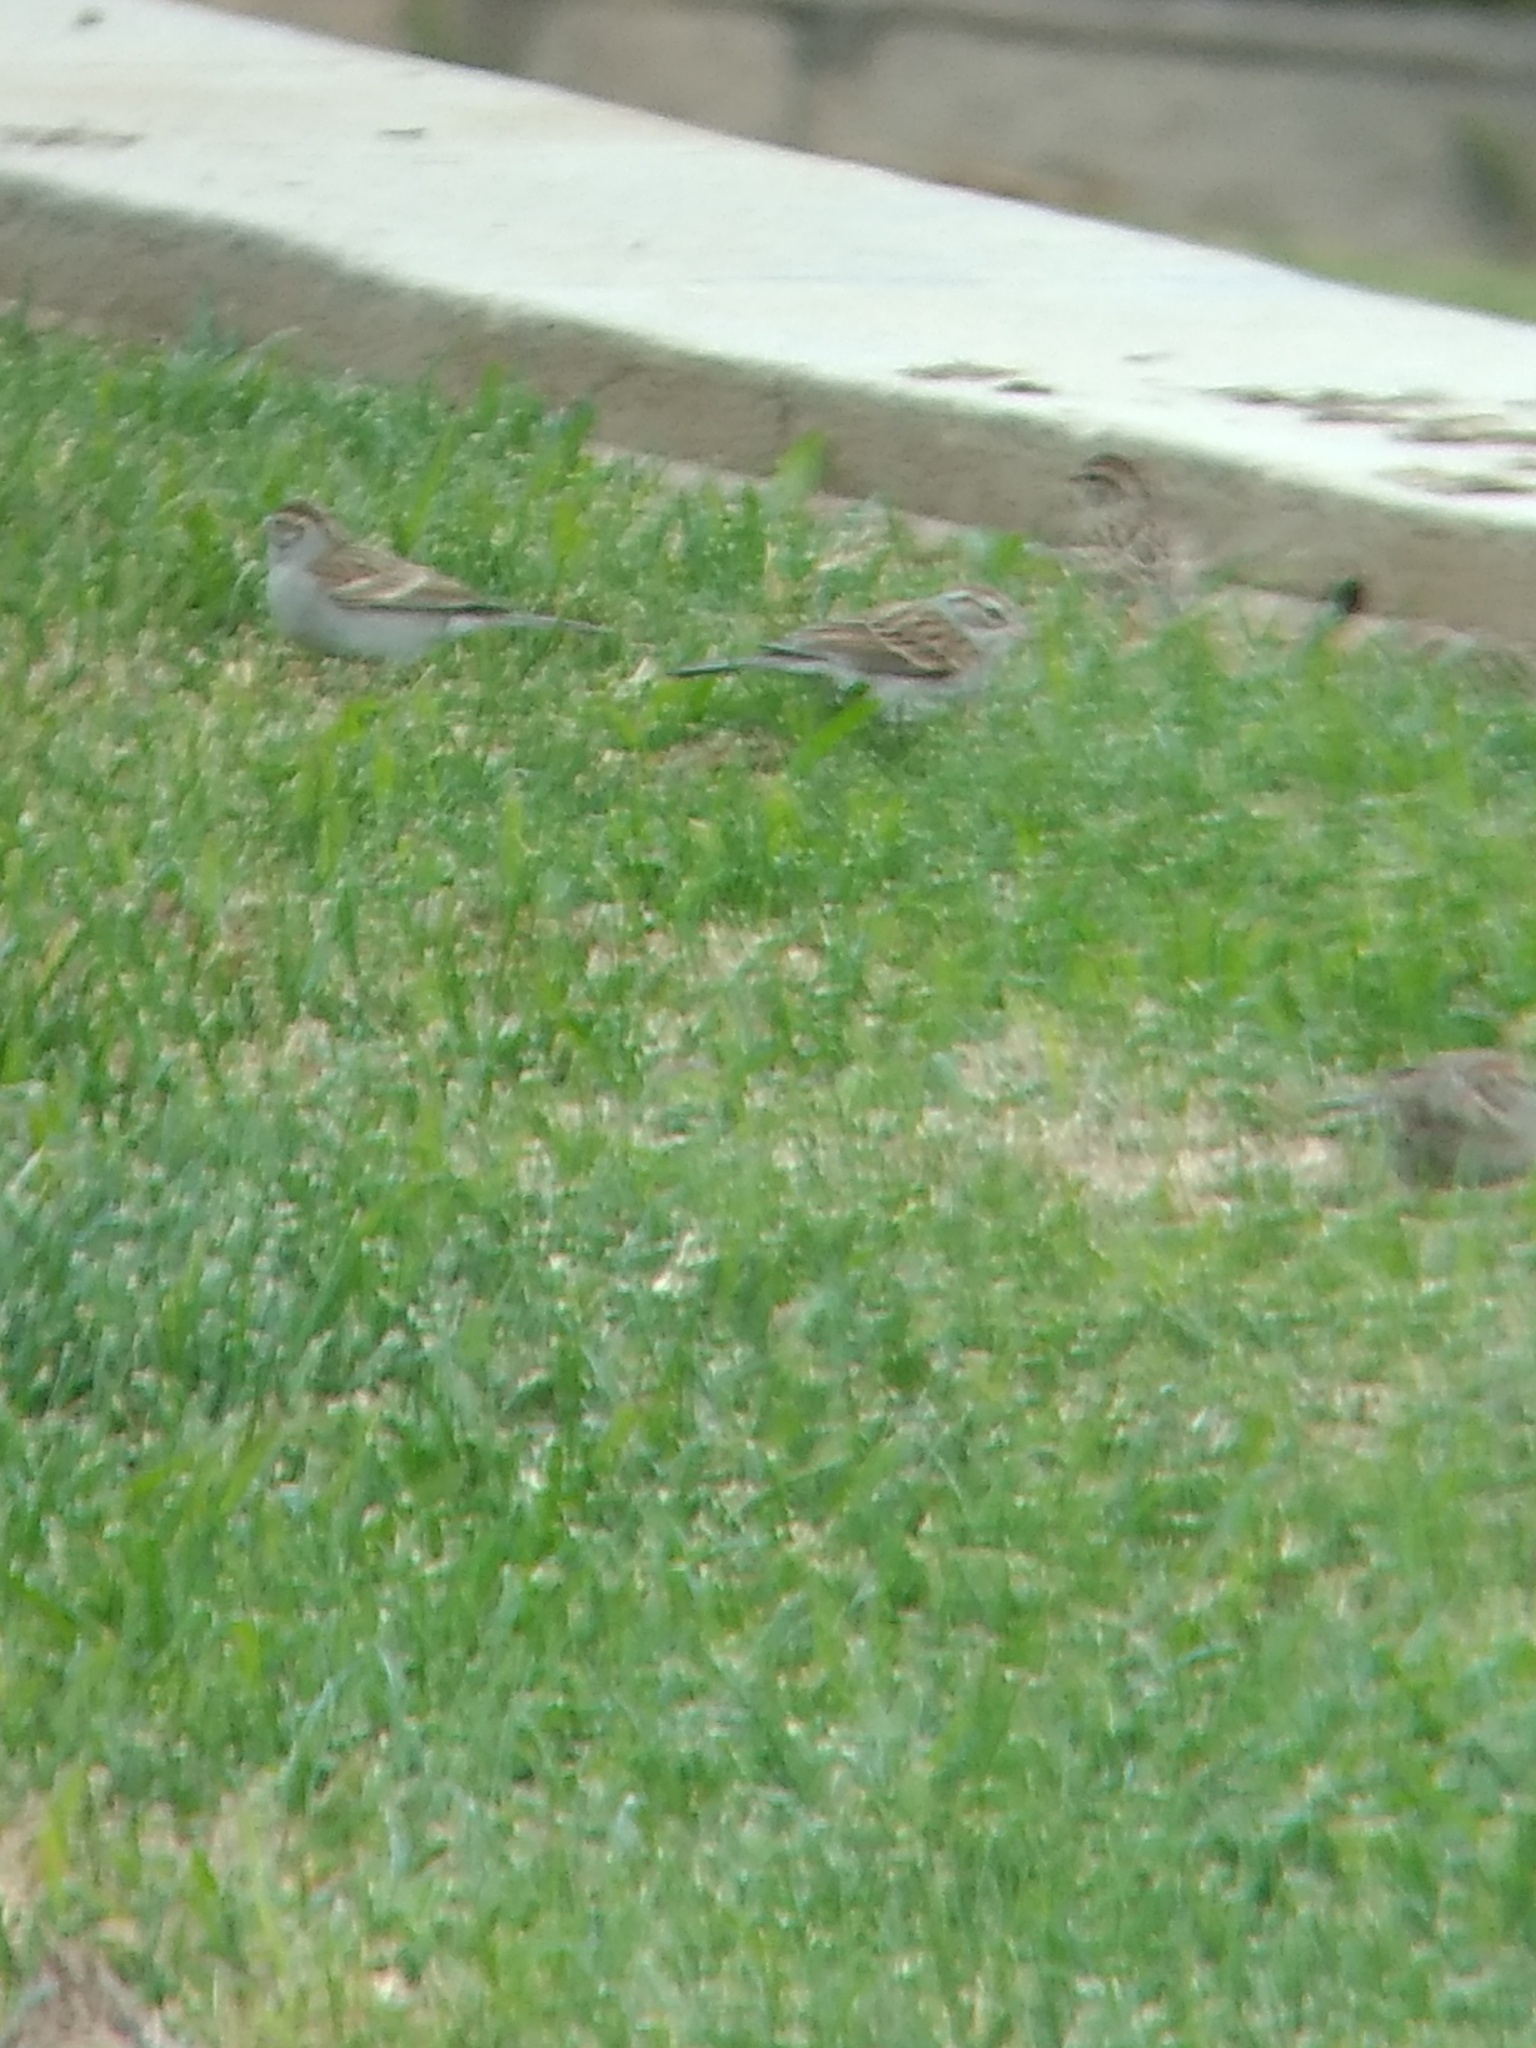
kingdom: Animalia
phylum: Chordata
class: Aves
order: Passeriformes
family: Passerellidae
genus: Spizella
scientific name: Spizella passerina
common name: Chipping sparrow
